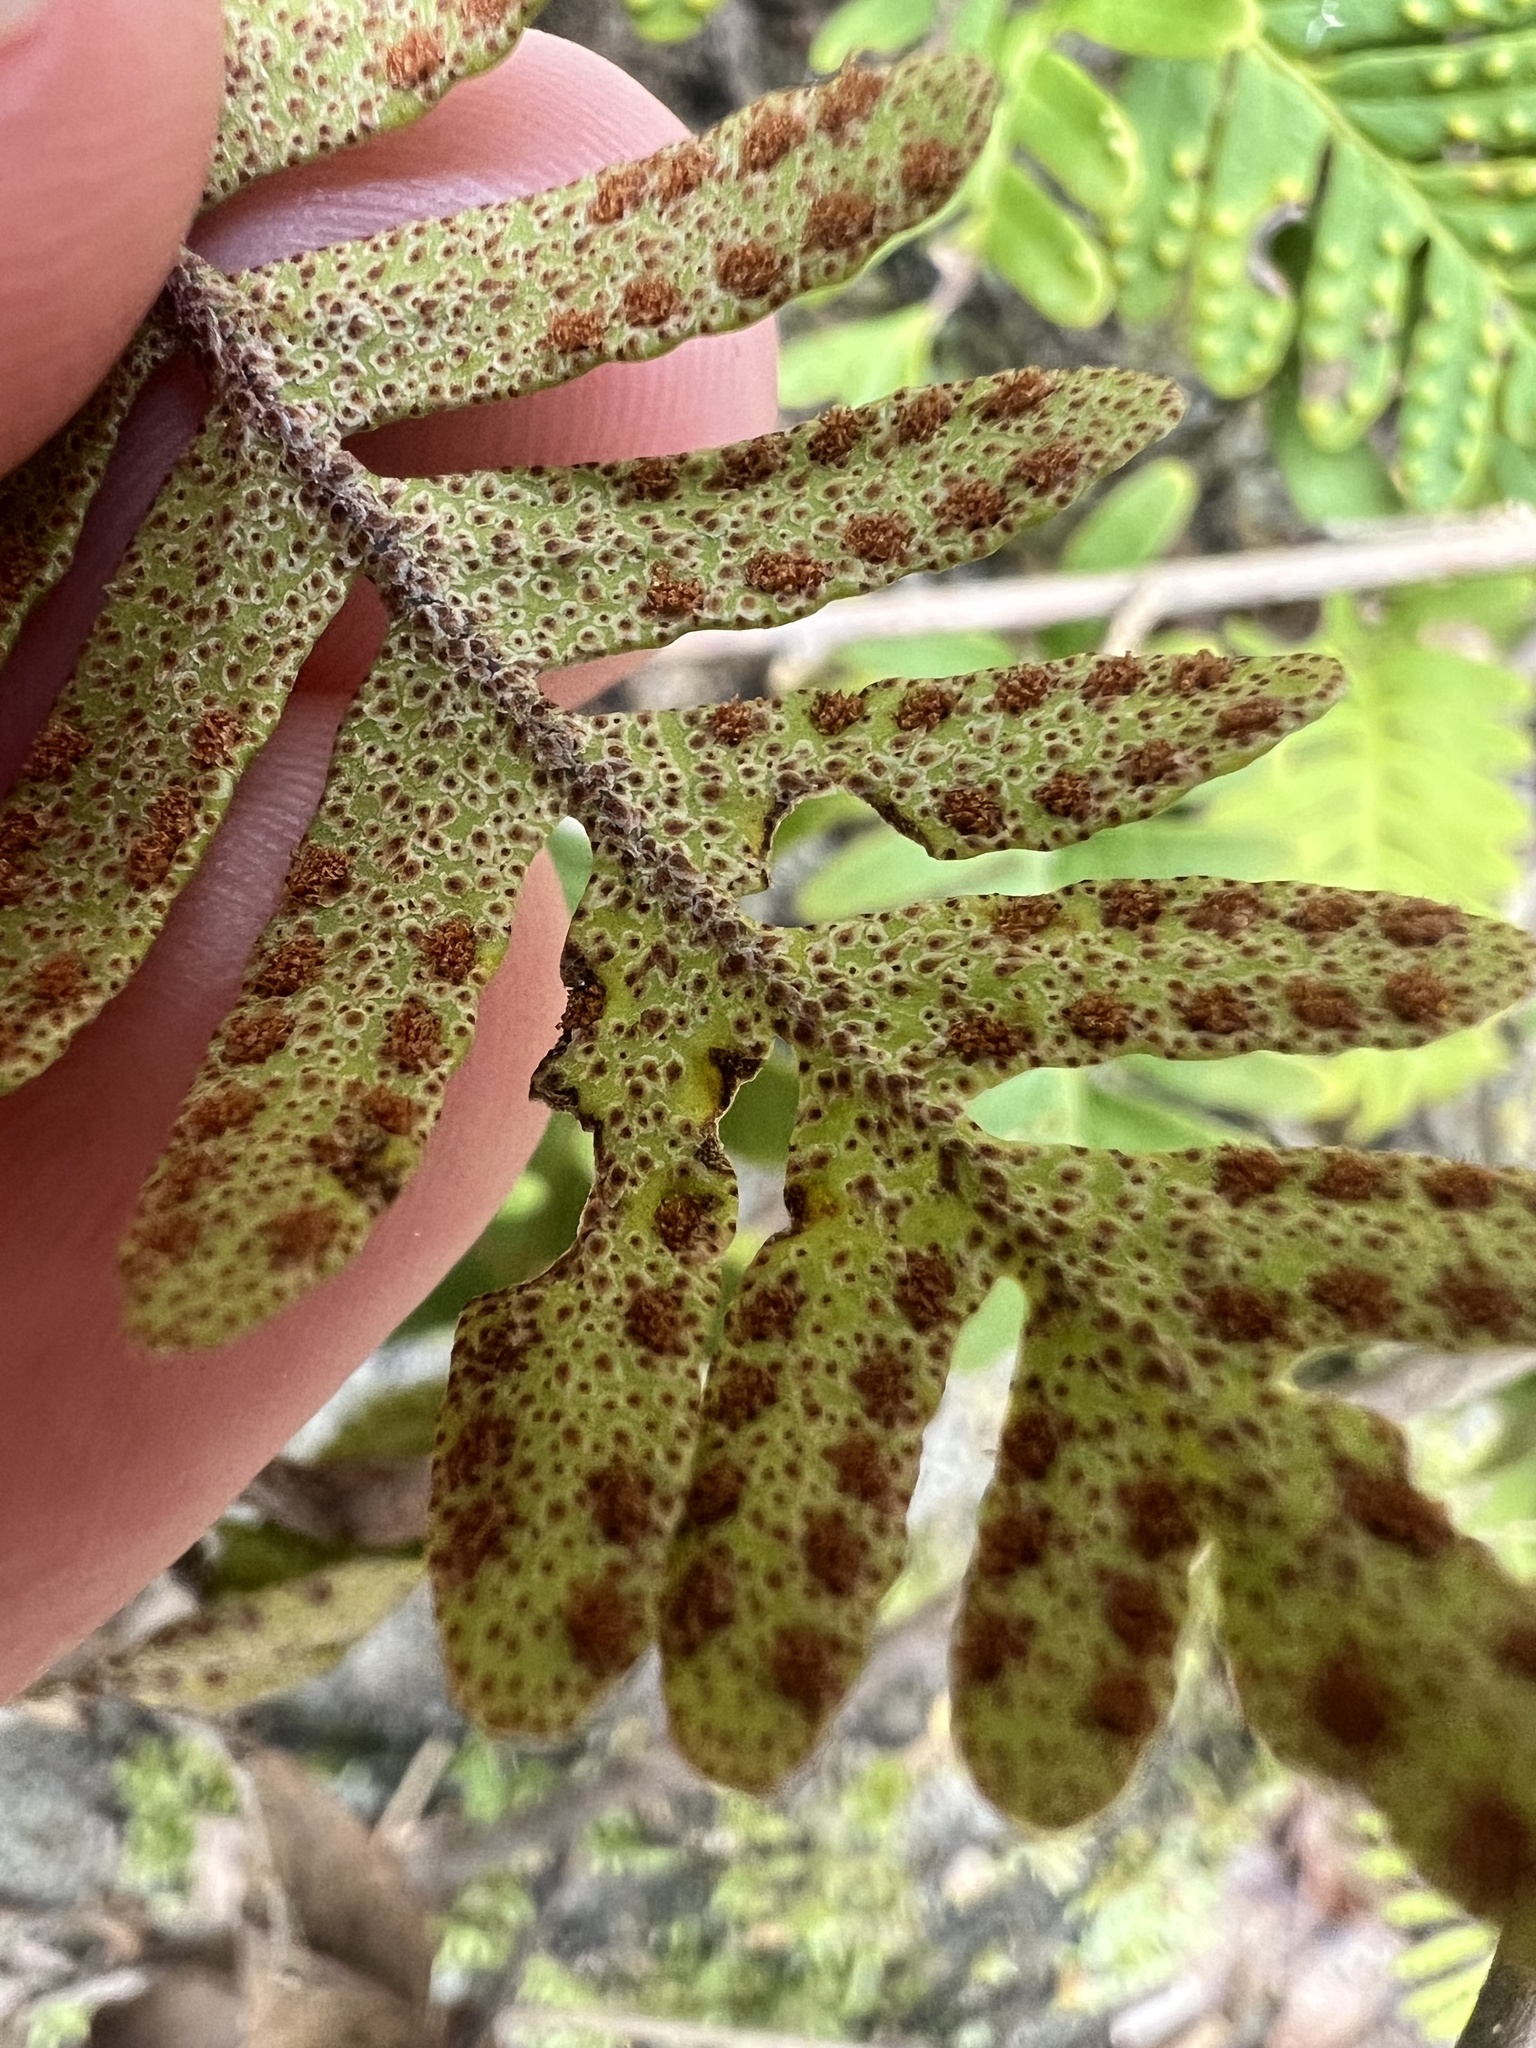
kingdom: Plantae
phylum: Tracheophyta
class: Polypodiopsida
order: Polypodiales
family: Polypodiaceae
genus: Pleopeltis
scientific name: Pleopeltis michauxiana
